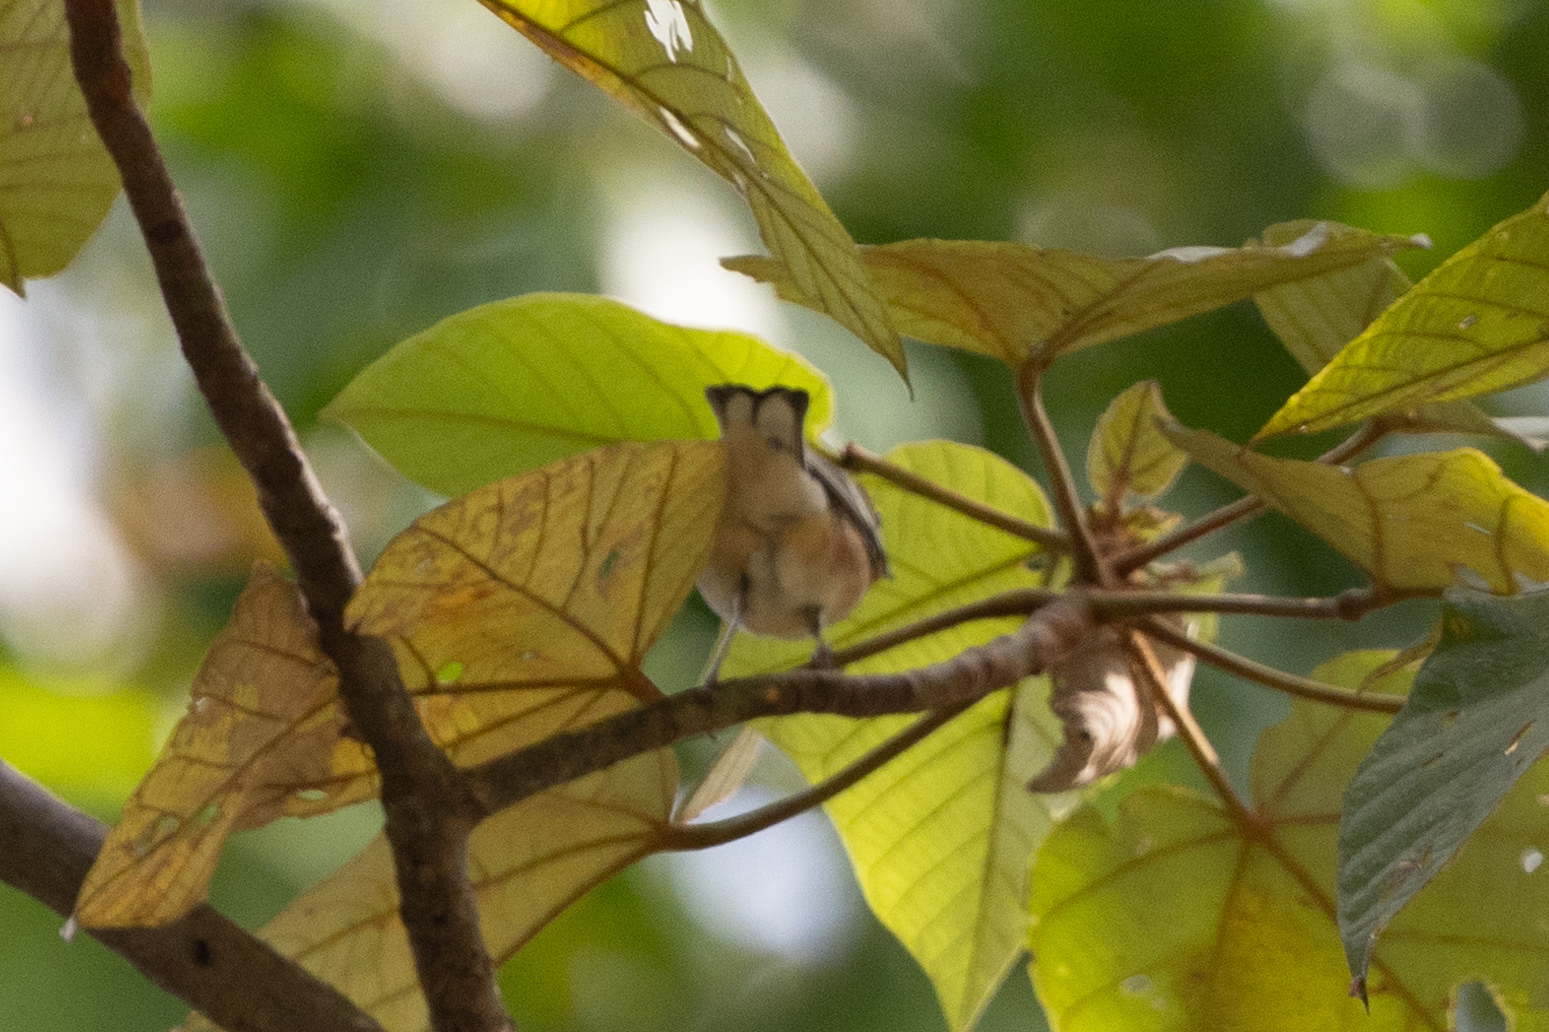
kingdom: Animalia
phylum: Chordata
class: Aves
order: Passeriformes
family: Parulidae
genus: Setophaga
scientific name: Setophaga castanea
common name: Bay-breasted warbler
